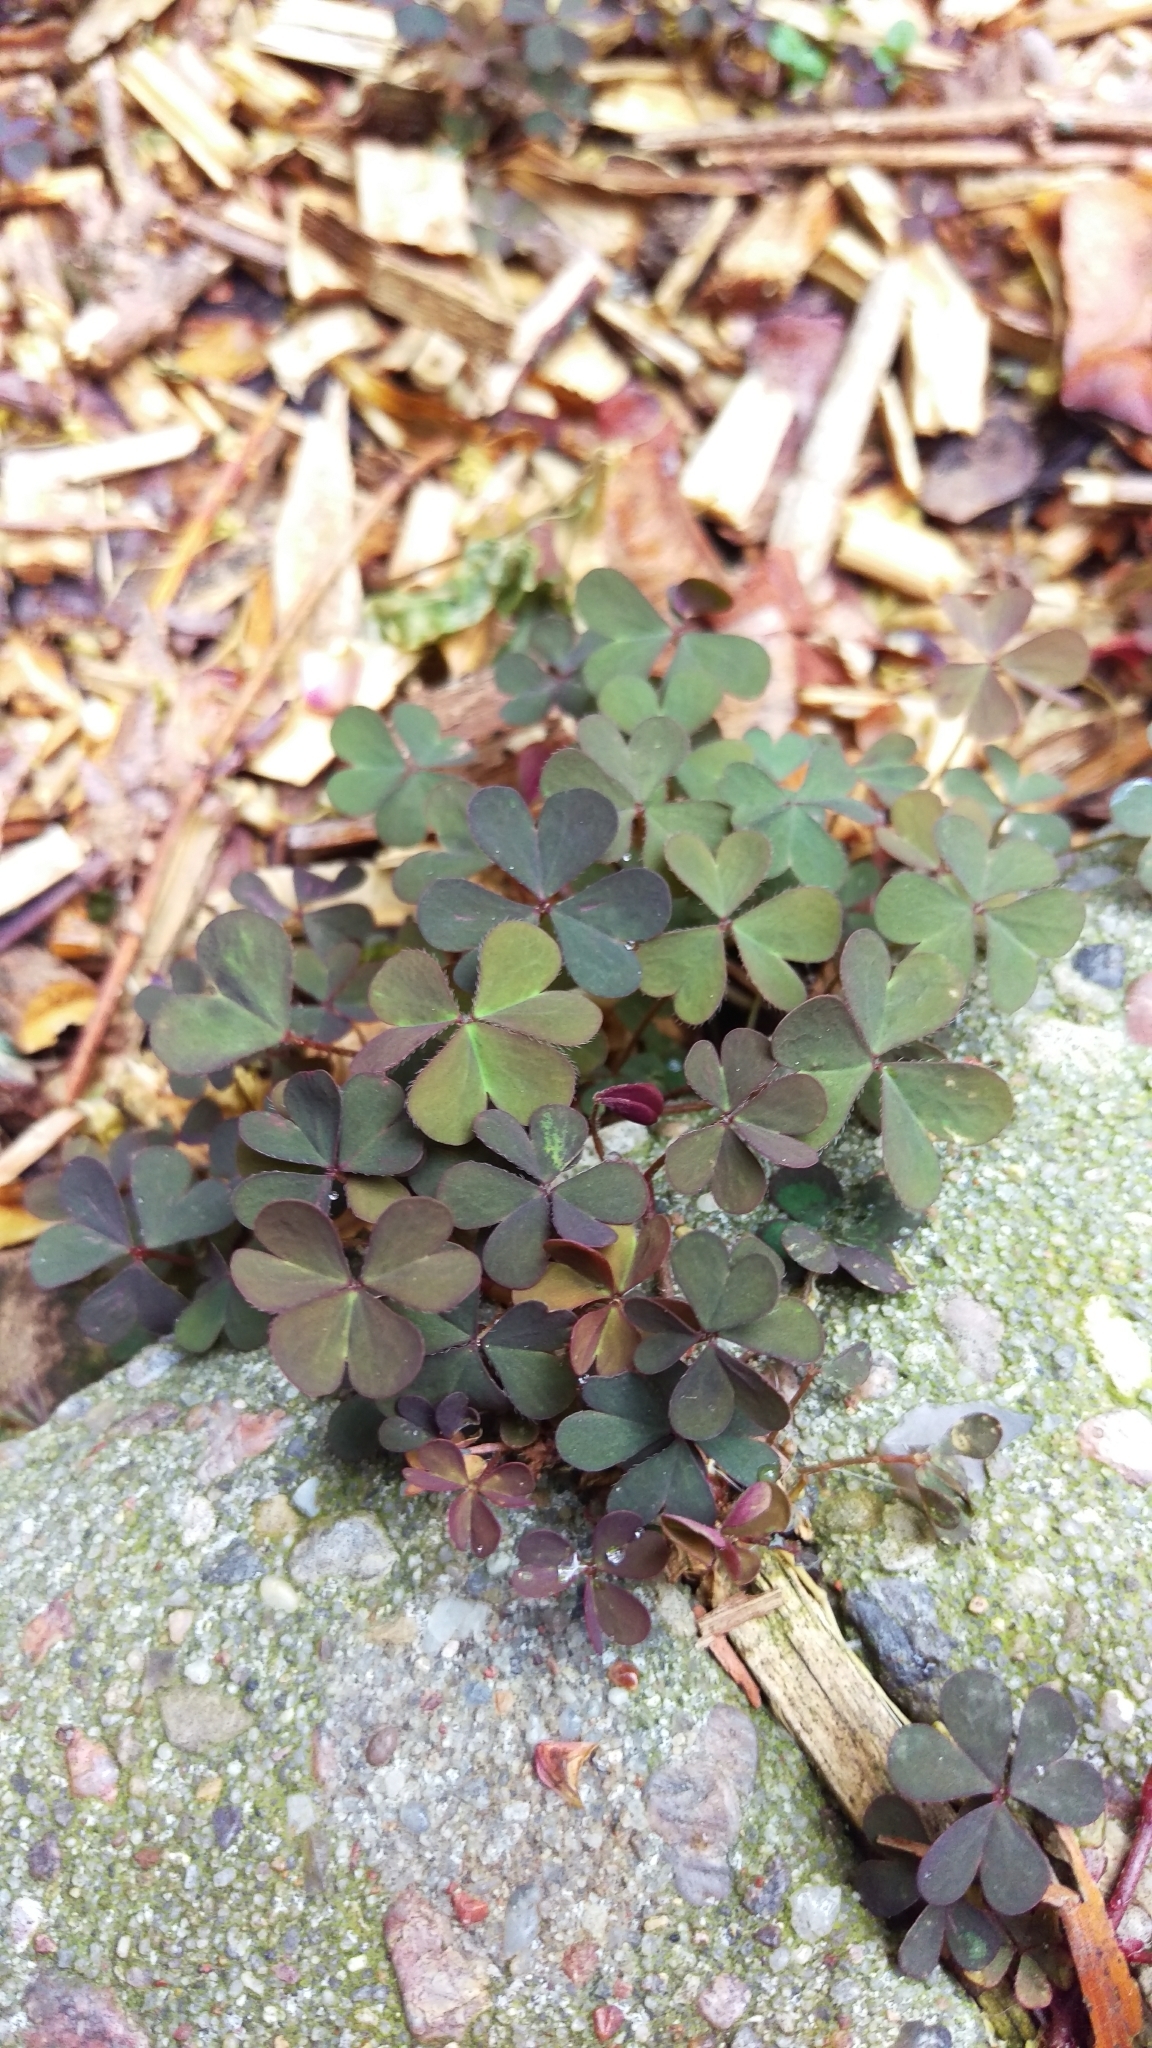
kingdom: Plantae
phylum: Tracheophyta
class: Magnoliopsida
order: Oxalidales
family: Oxalidaceae
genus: Oxalis
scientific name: Oxalis corniculata
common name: Procumbent yellow-sorrel
